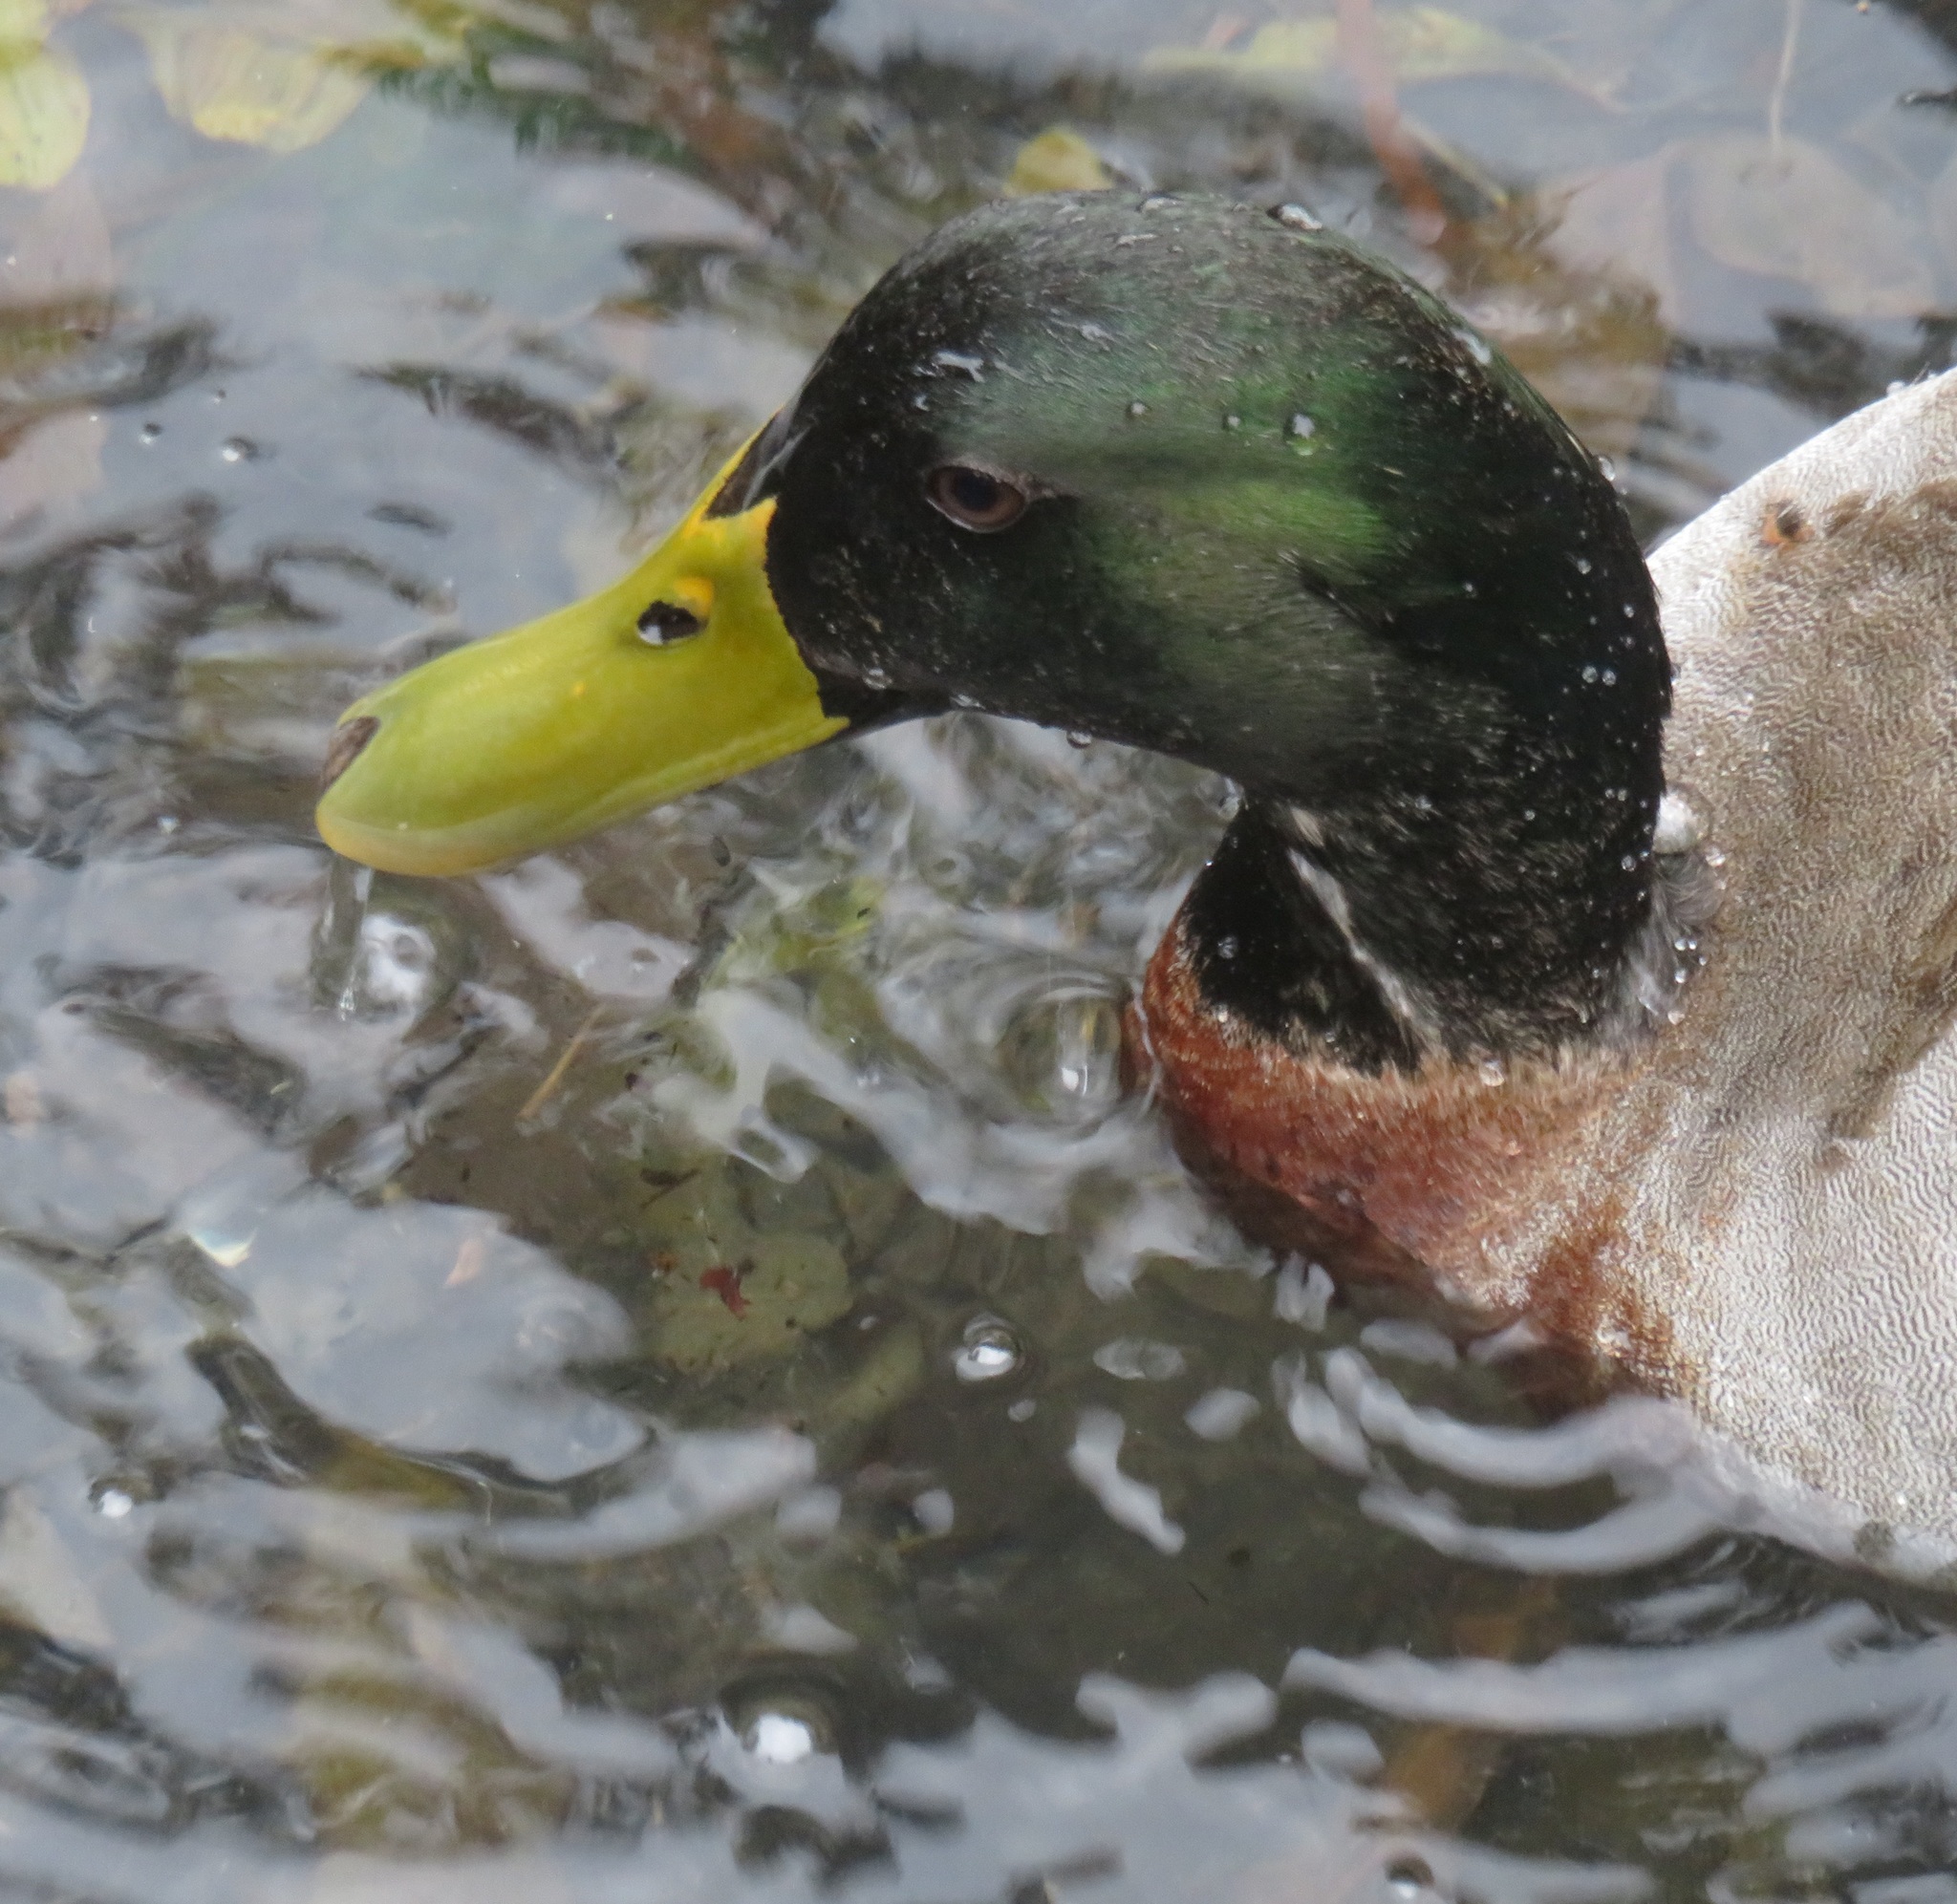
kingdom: Animalia
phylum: Chordata
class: Aves
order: Anseriformes
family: Anatidae
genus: Anas
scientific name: Anas platyrhynchos
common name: Mallard
